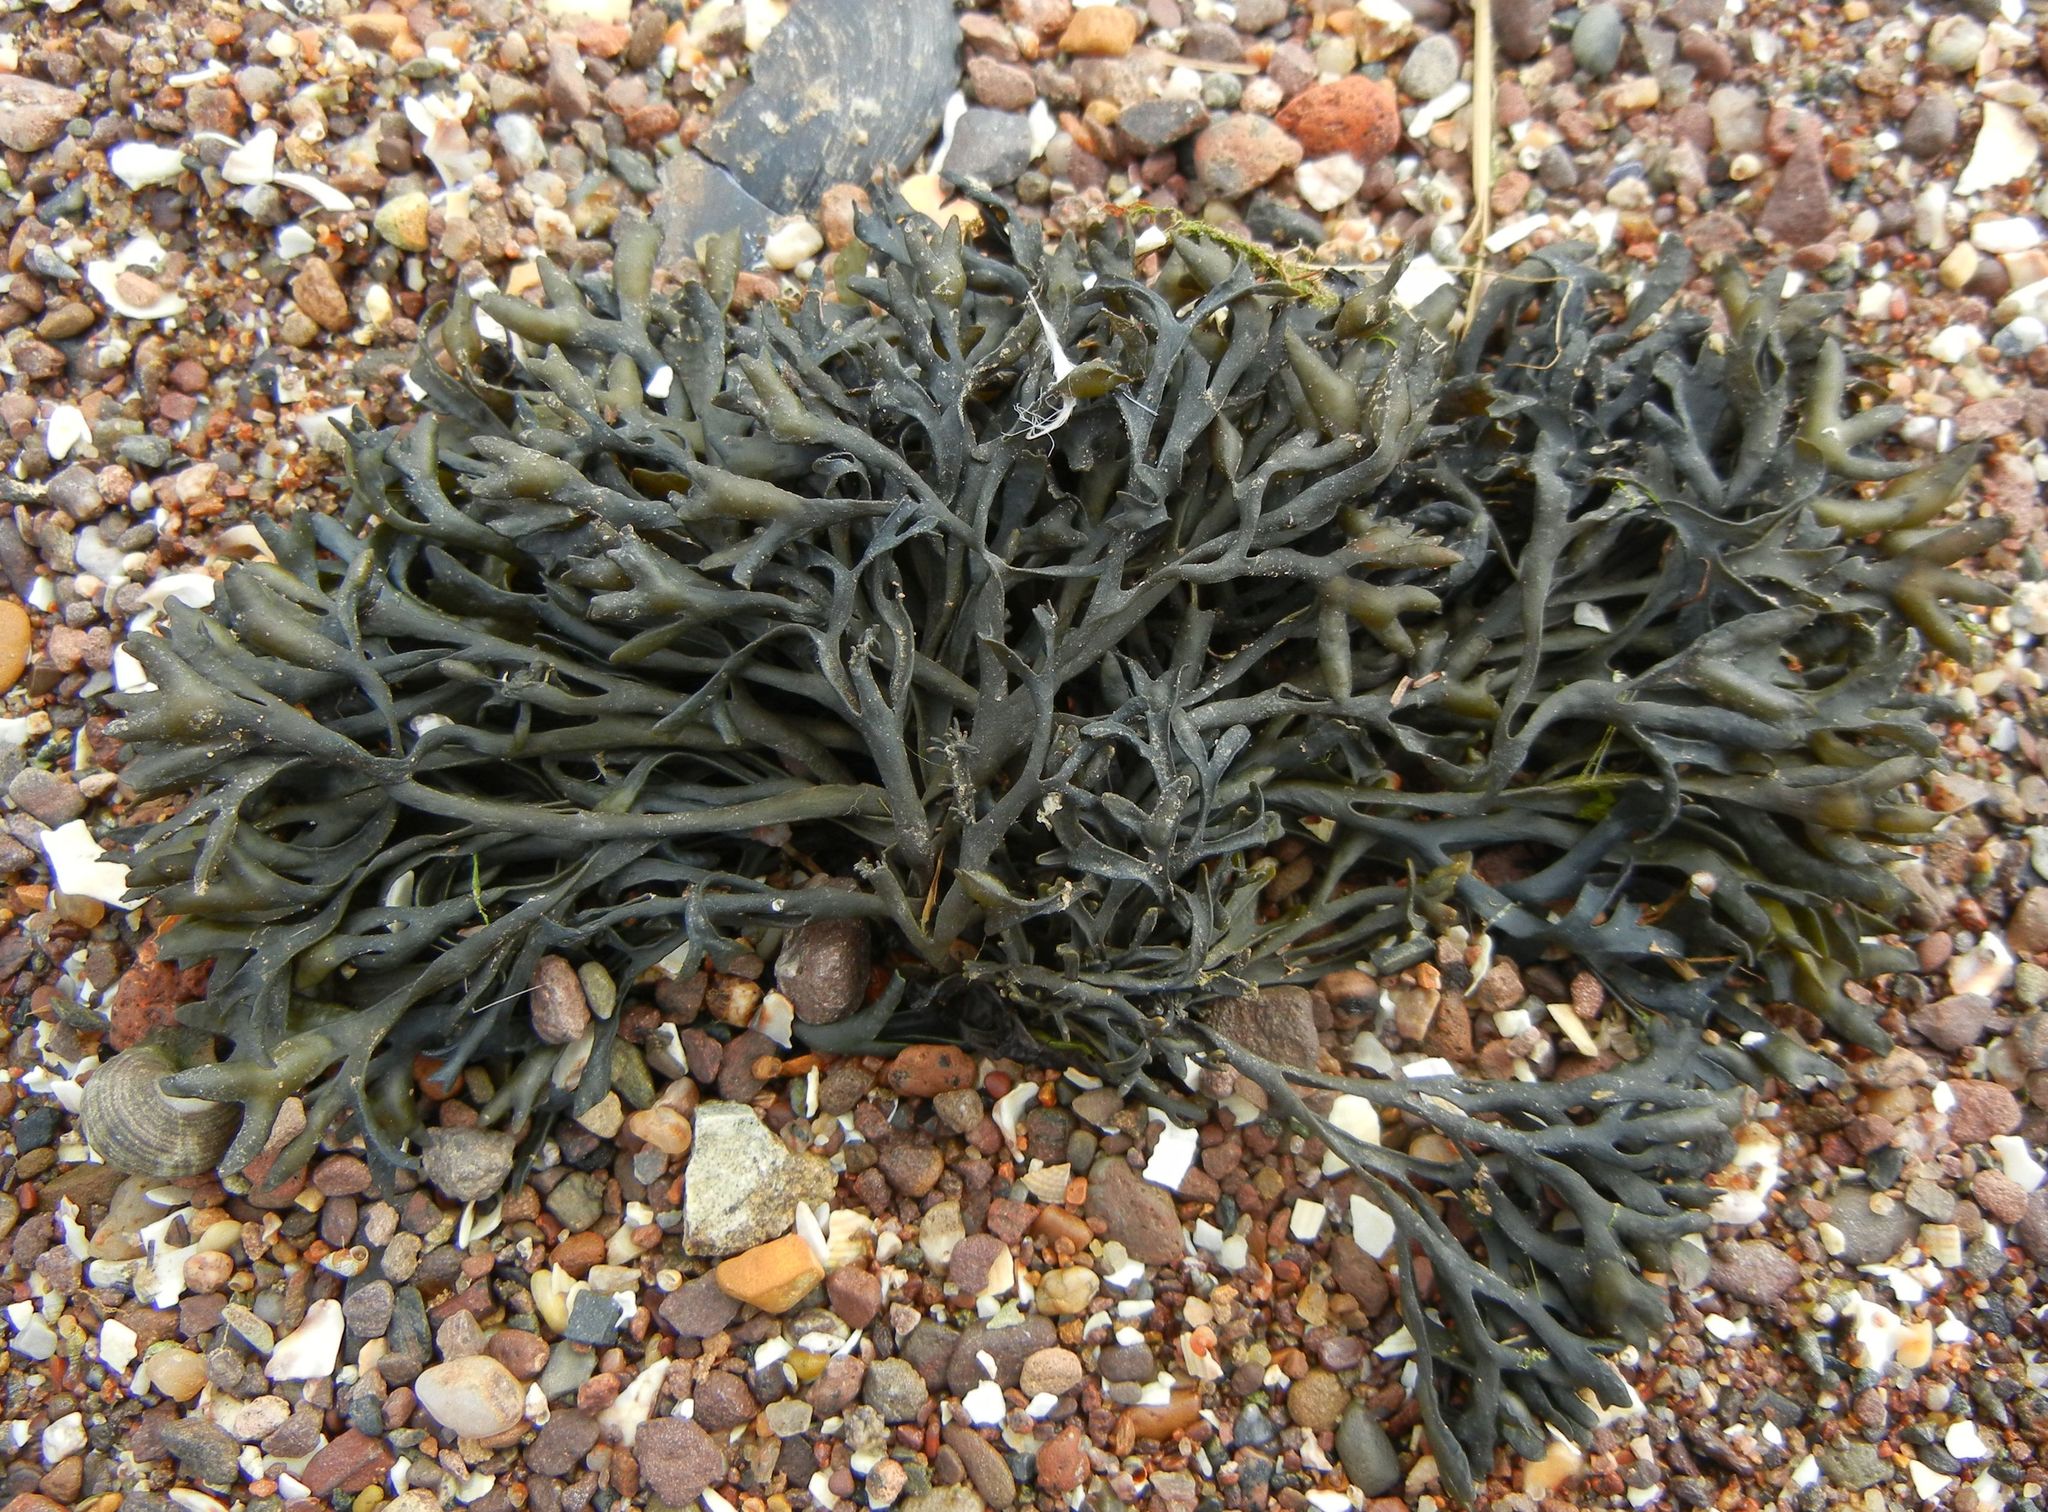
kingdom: Chromista
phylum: Ochrophyta
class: Phaeophyceae
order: Fucales
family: Fucaceae
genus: Pelvetia
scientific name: Pelvetia canaliculata
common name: Channelled wrack
